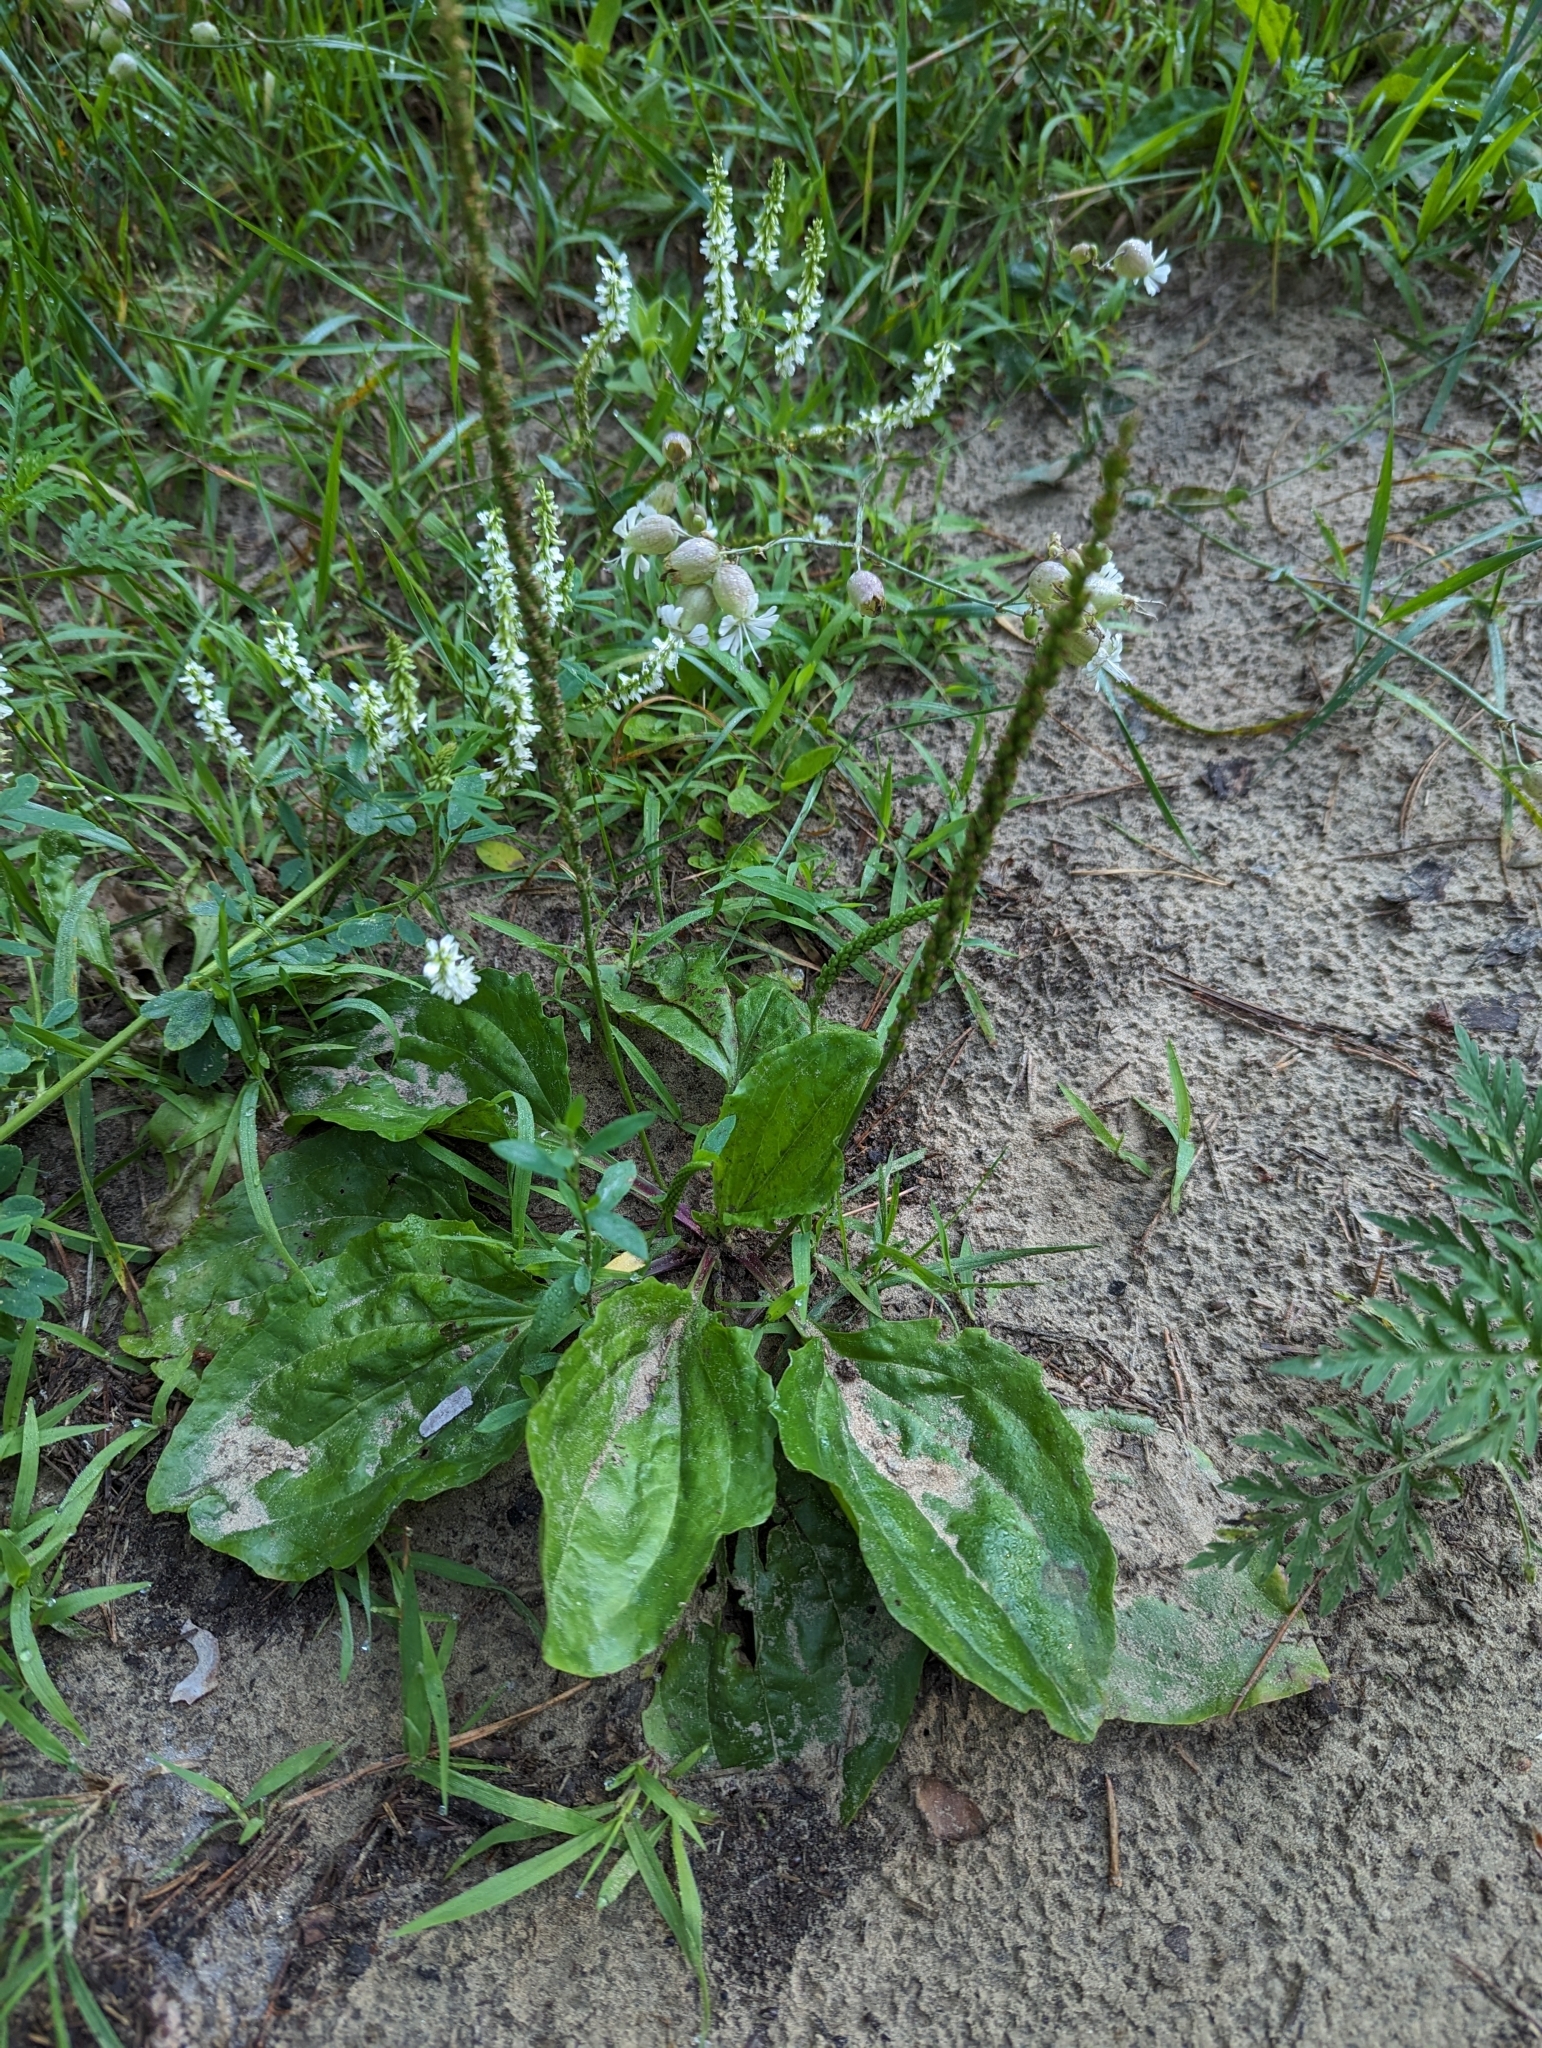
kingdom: Plantae
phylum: Tracheophyta
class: Magnoliopsida
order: Lamiales
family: Plantaginaceae
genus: Plantago
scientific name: Plantago major
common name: Common plantain
